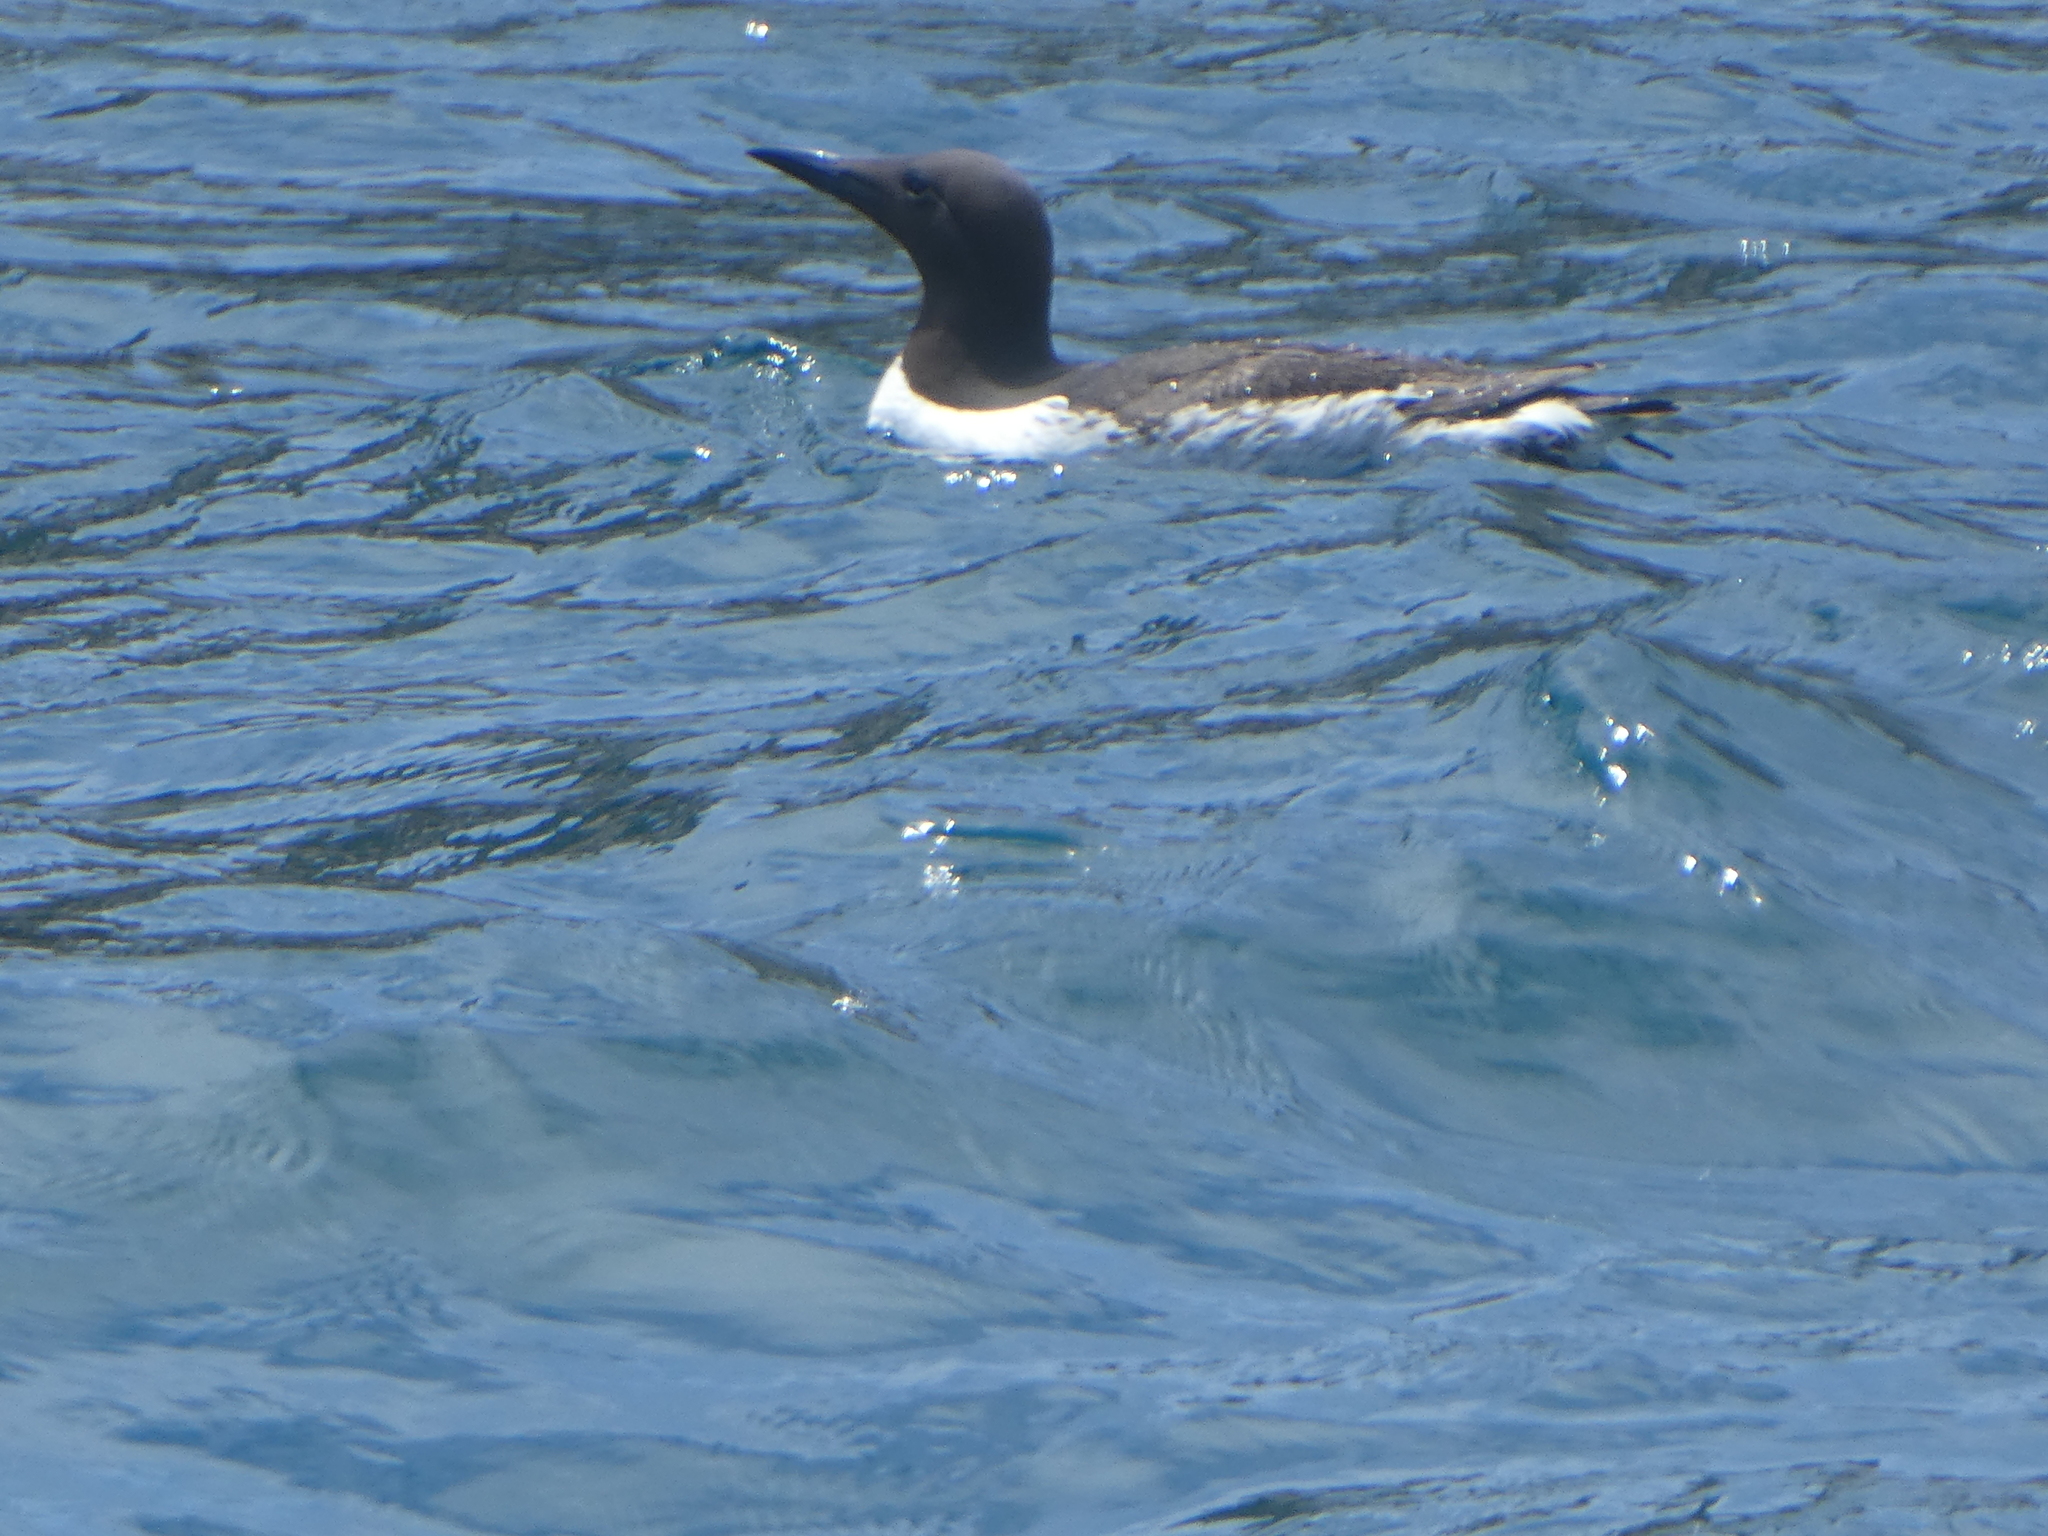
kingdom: Animalia
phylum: Chordata
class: Aves
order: Charadriiformes
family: Alcidae
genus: Uria
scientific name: Uria aalge
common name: Common murre
